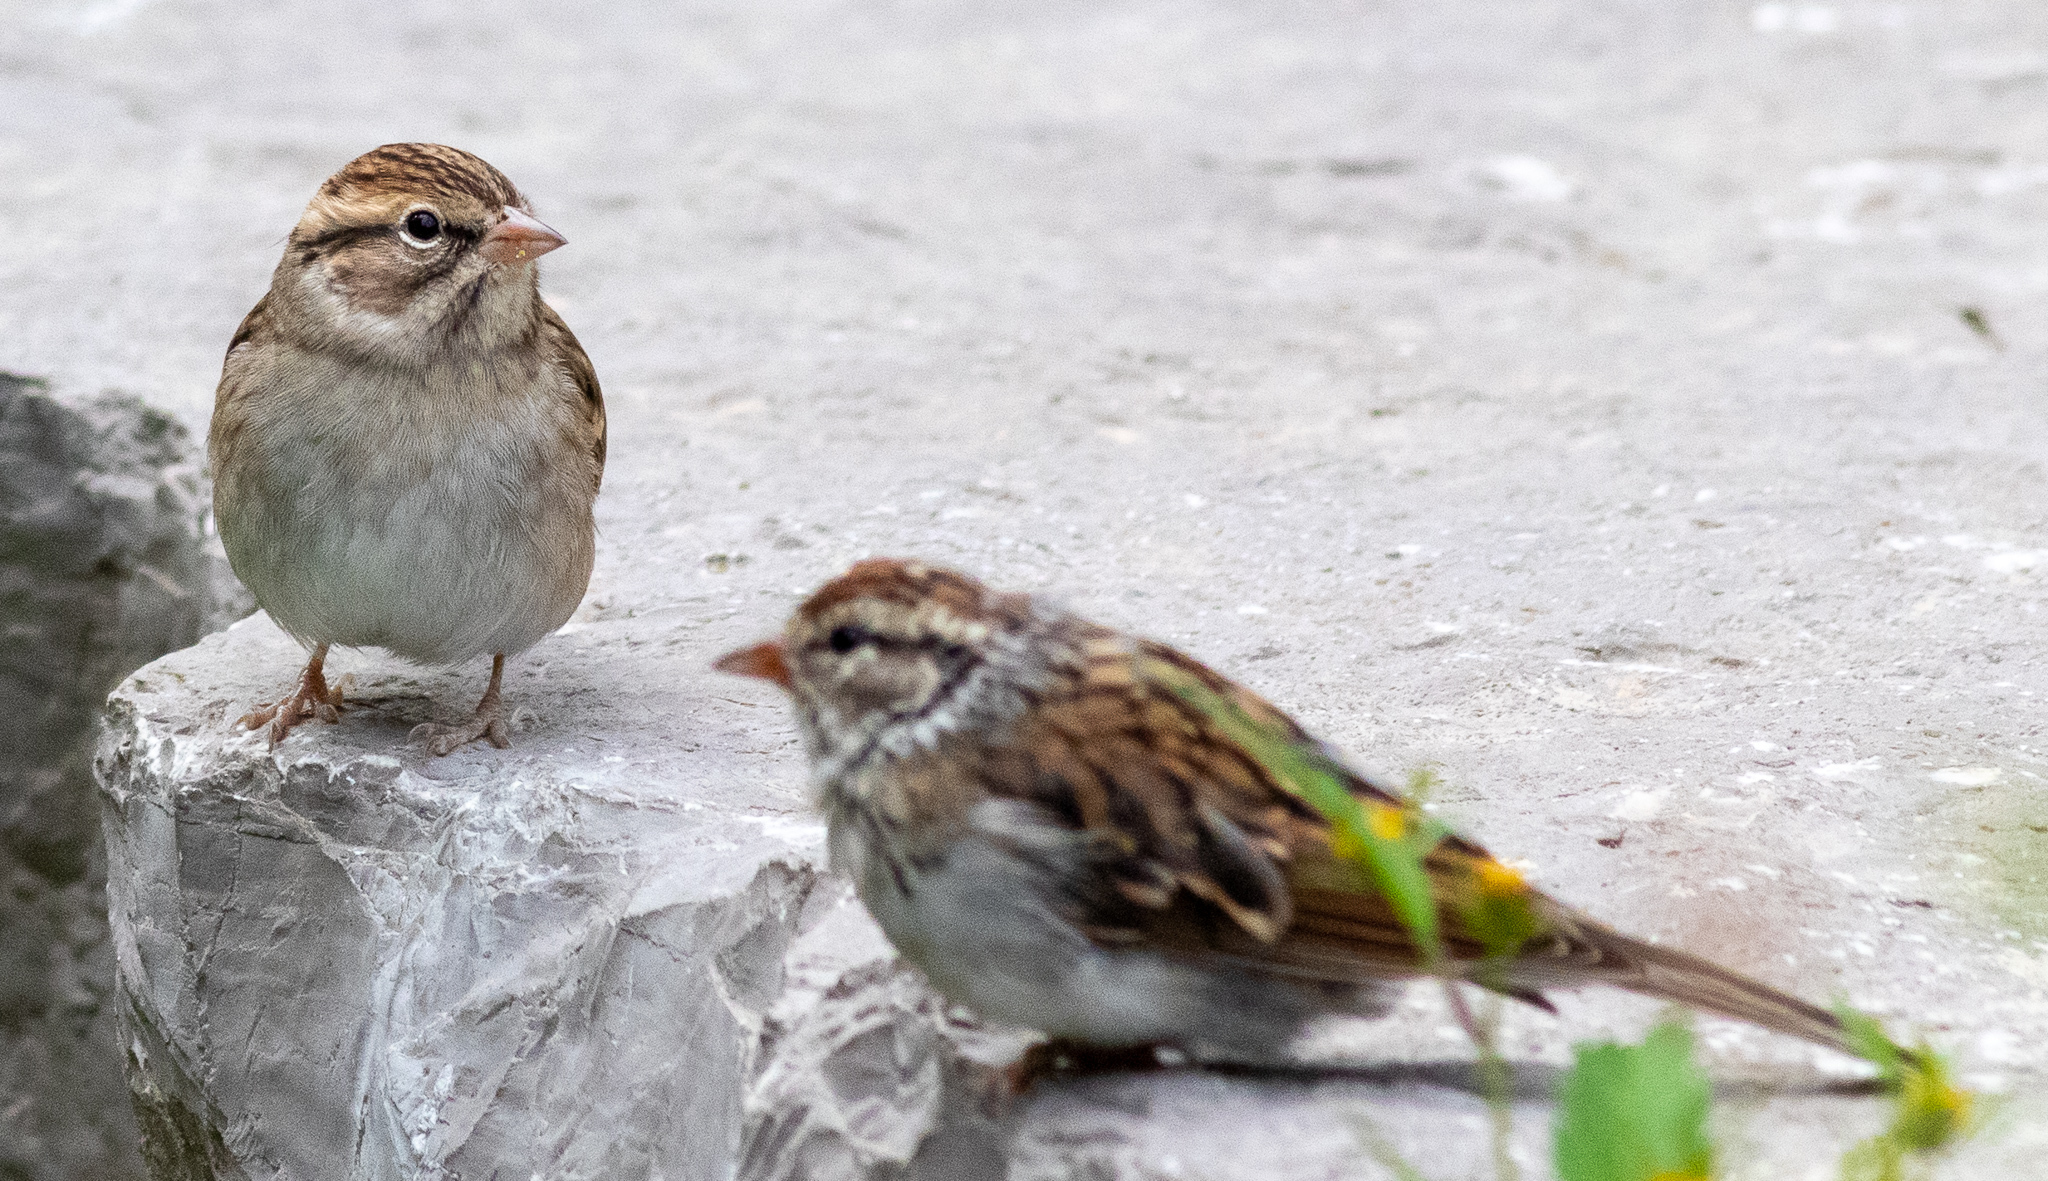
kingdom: Animalia
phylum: Chordata
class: Aves
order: Passeriformes
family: Passerellidae
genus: Spizella
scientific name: Spizella passerina
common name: Chipping sparrow
